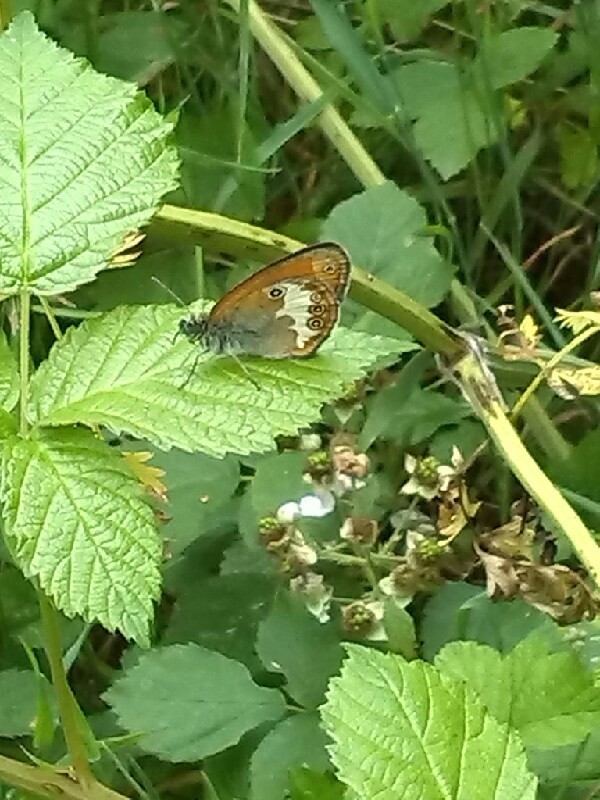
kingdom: Animalia
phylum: Arthropoda
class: Insecta
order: Lepidoptera
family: Nymphalidae
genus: Coenonympha
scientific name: Coenonympha arcania
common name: Pearly heath
